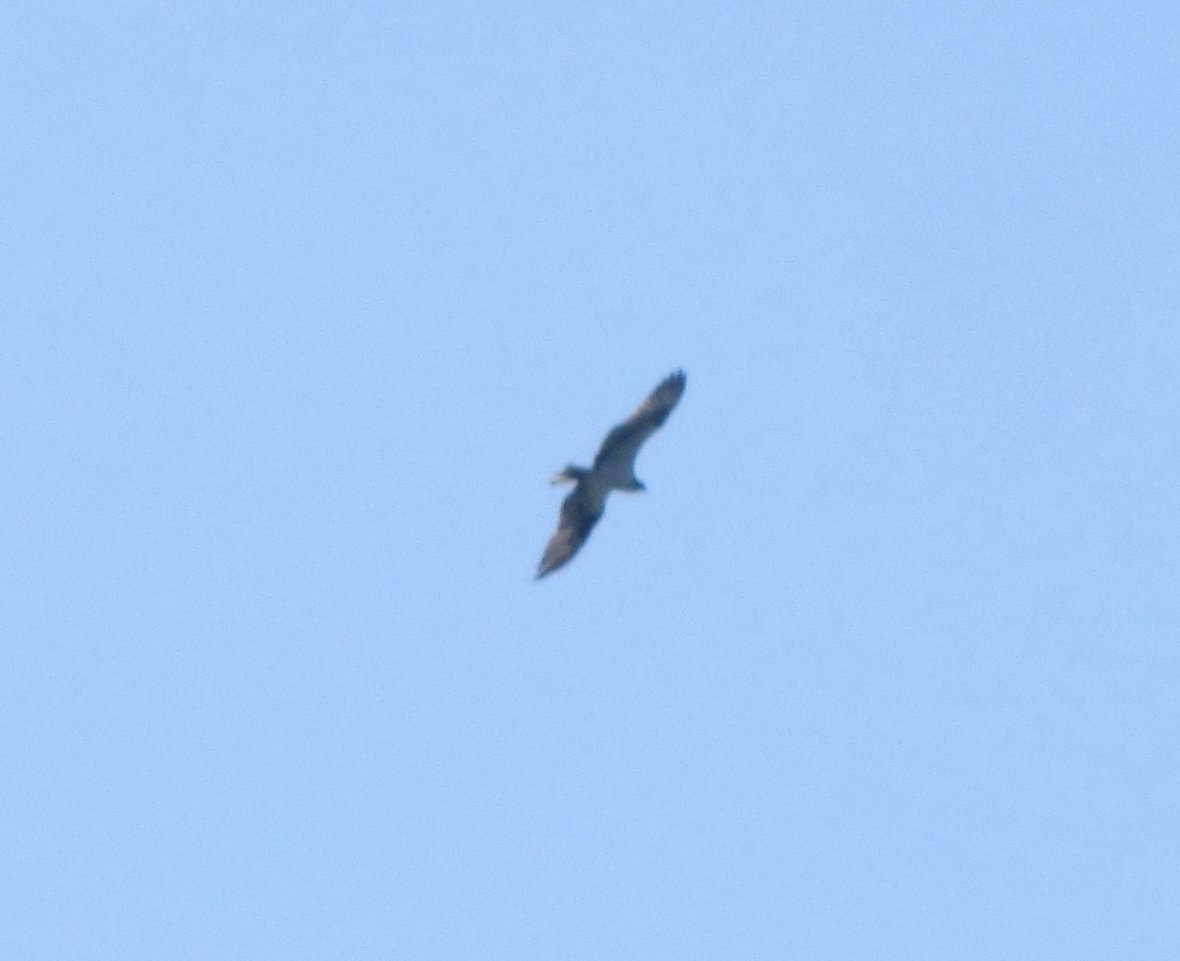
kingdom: Animalia
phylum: Chordata
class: Aves
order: Accipitriformes
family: Pandionidae
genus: Pandion
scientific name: Pandion haliaetus
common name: Osprey
